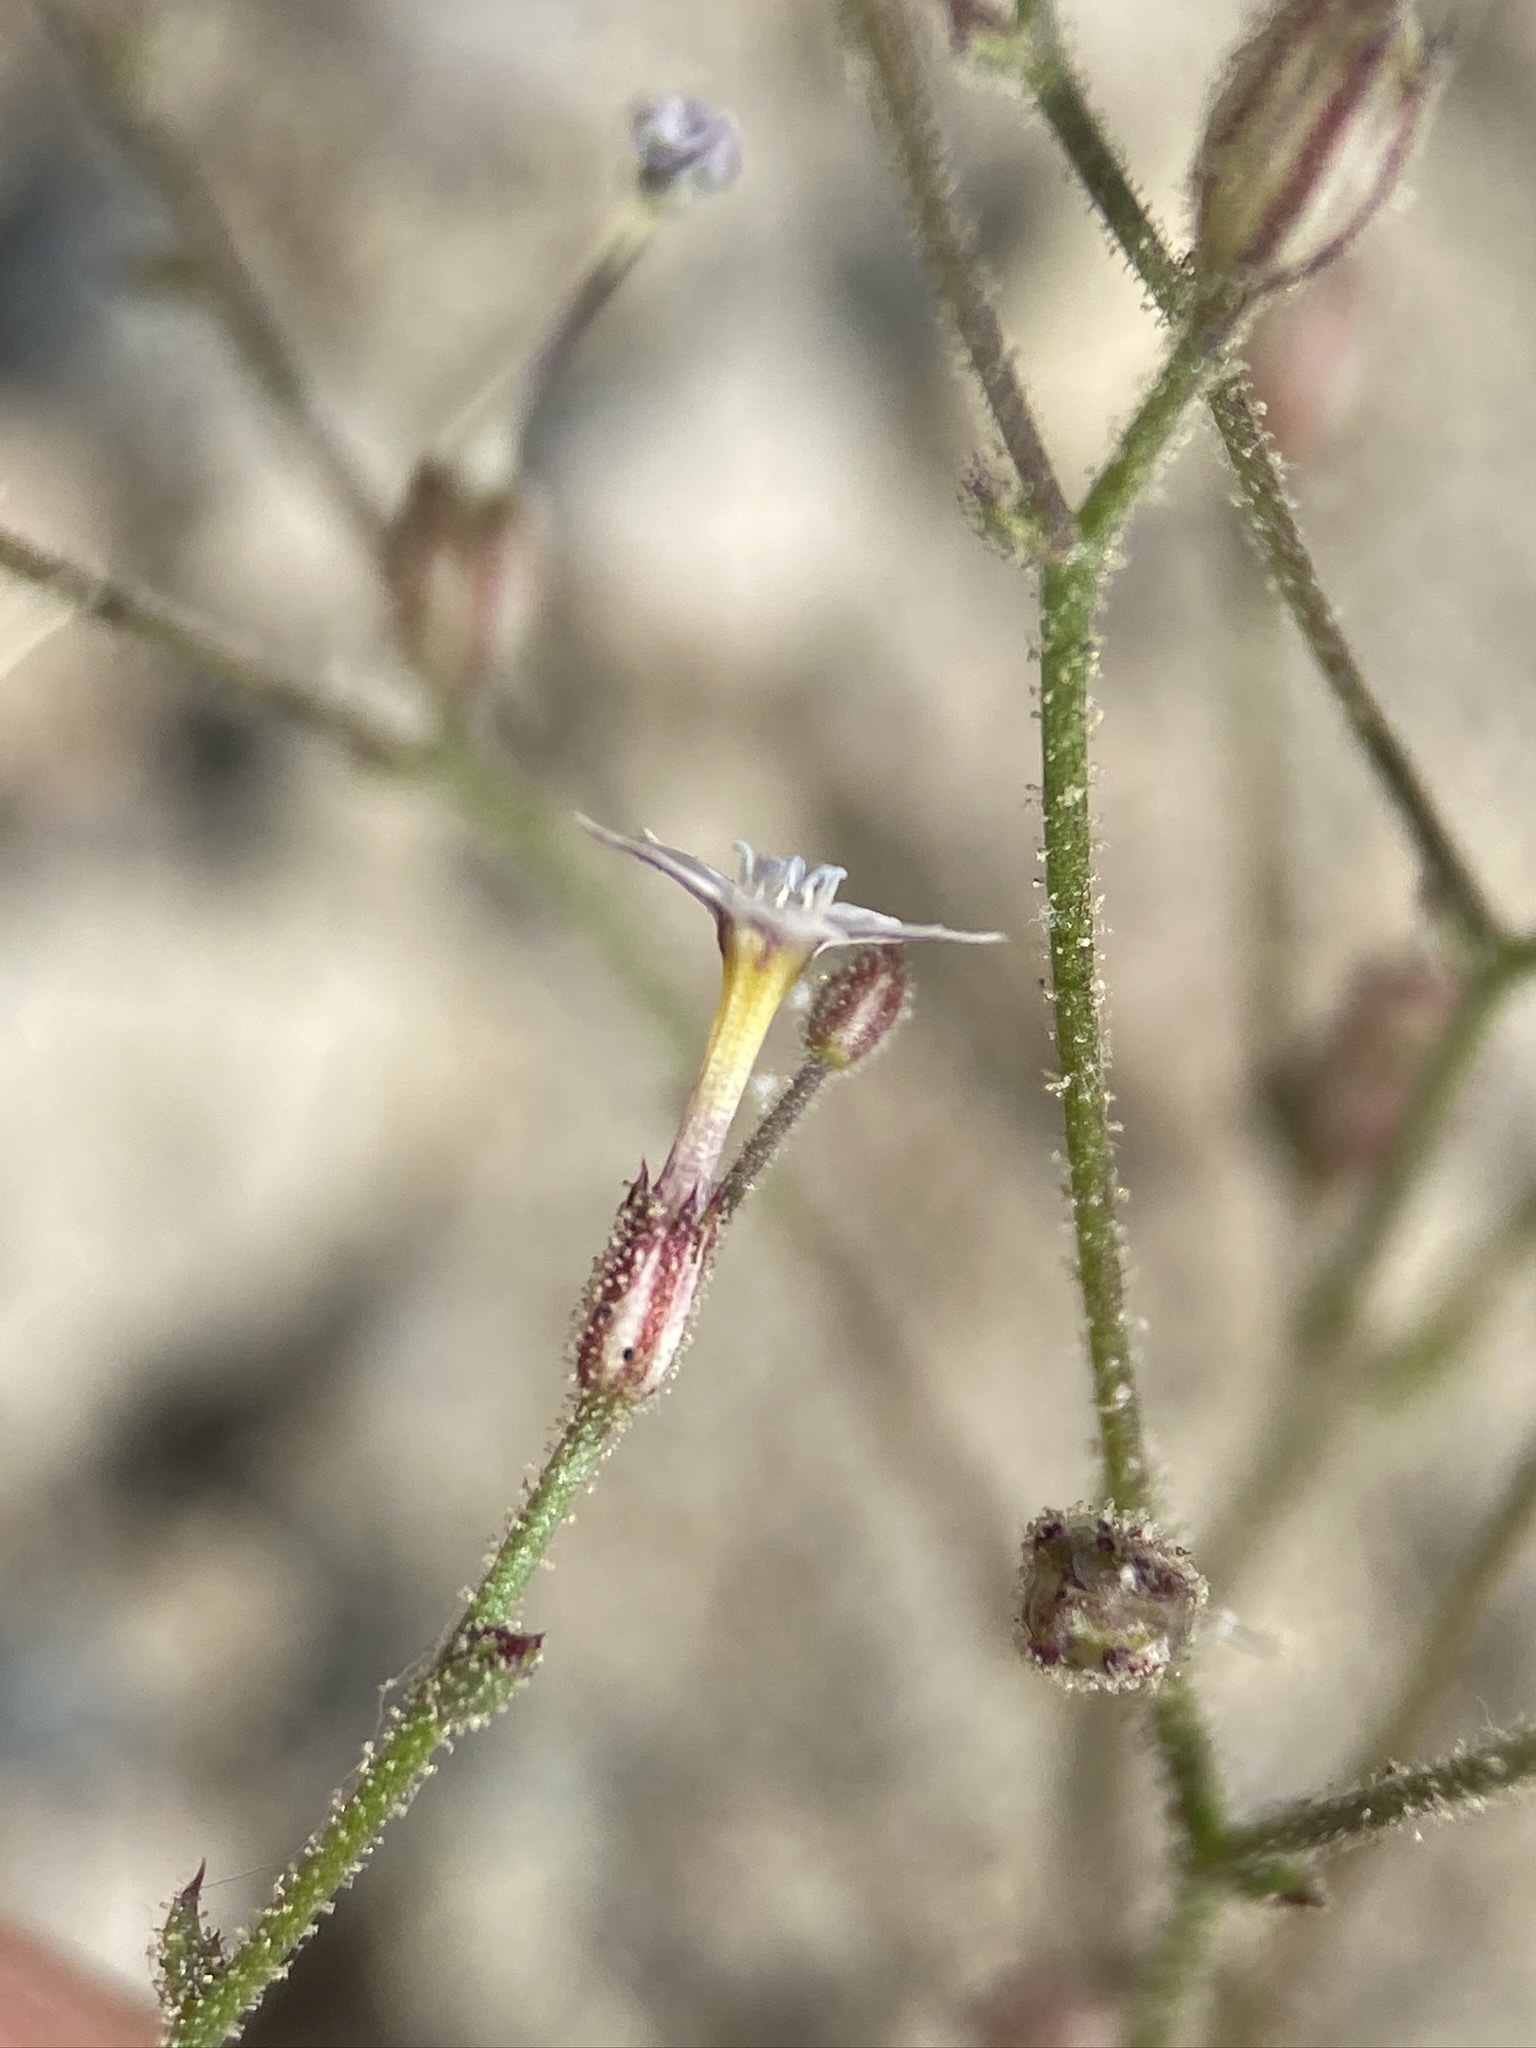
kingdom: Plantae
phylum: Tracheophyta
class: Magnoliopsida
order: Ericales
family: Polemoniaceae
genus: Aliciella
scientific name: Aliciella triodon
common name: Coyote gilia
